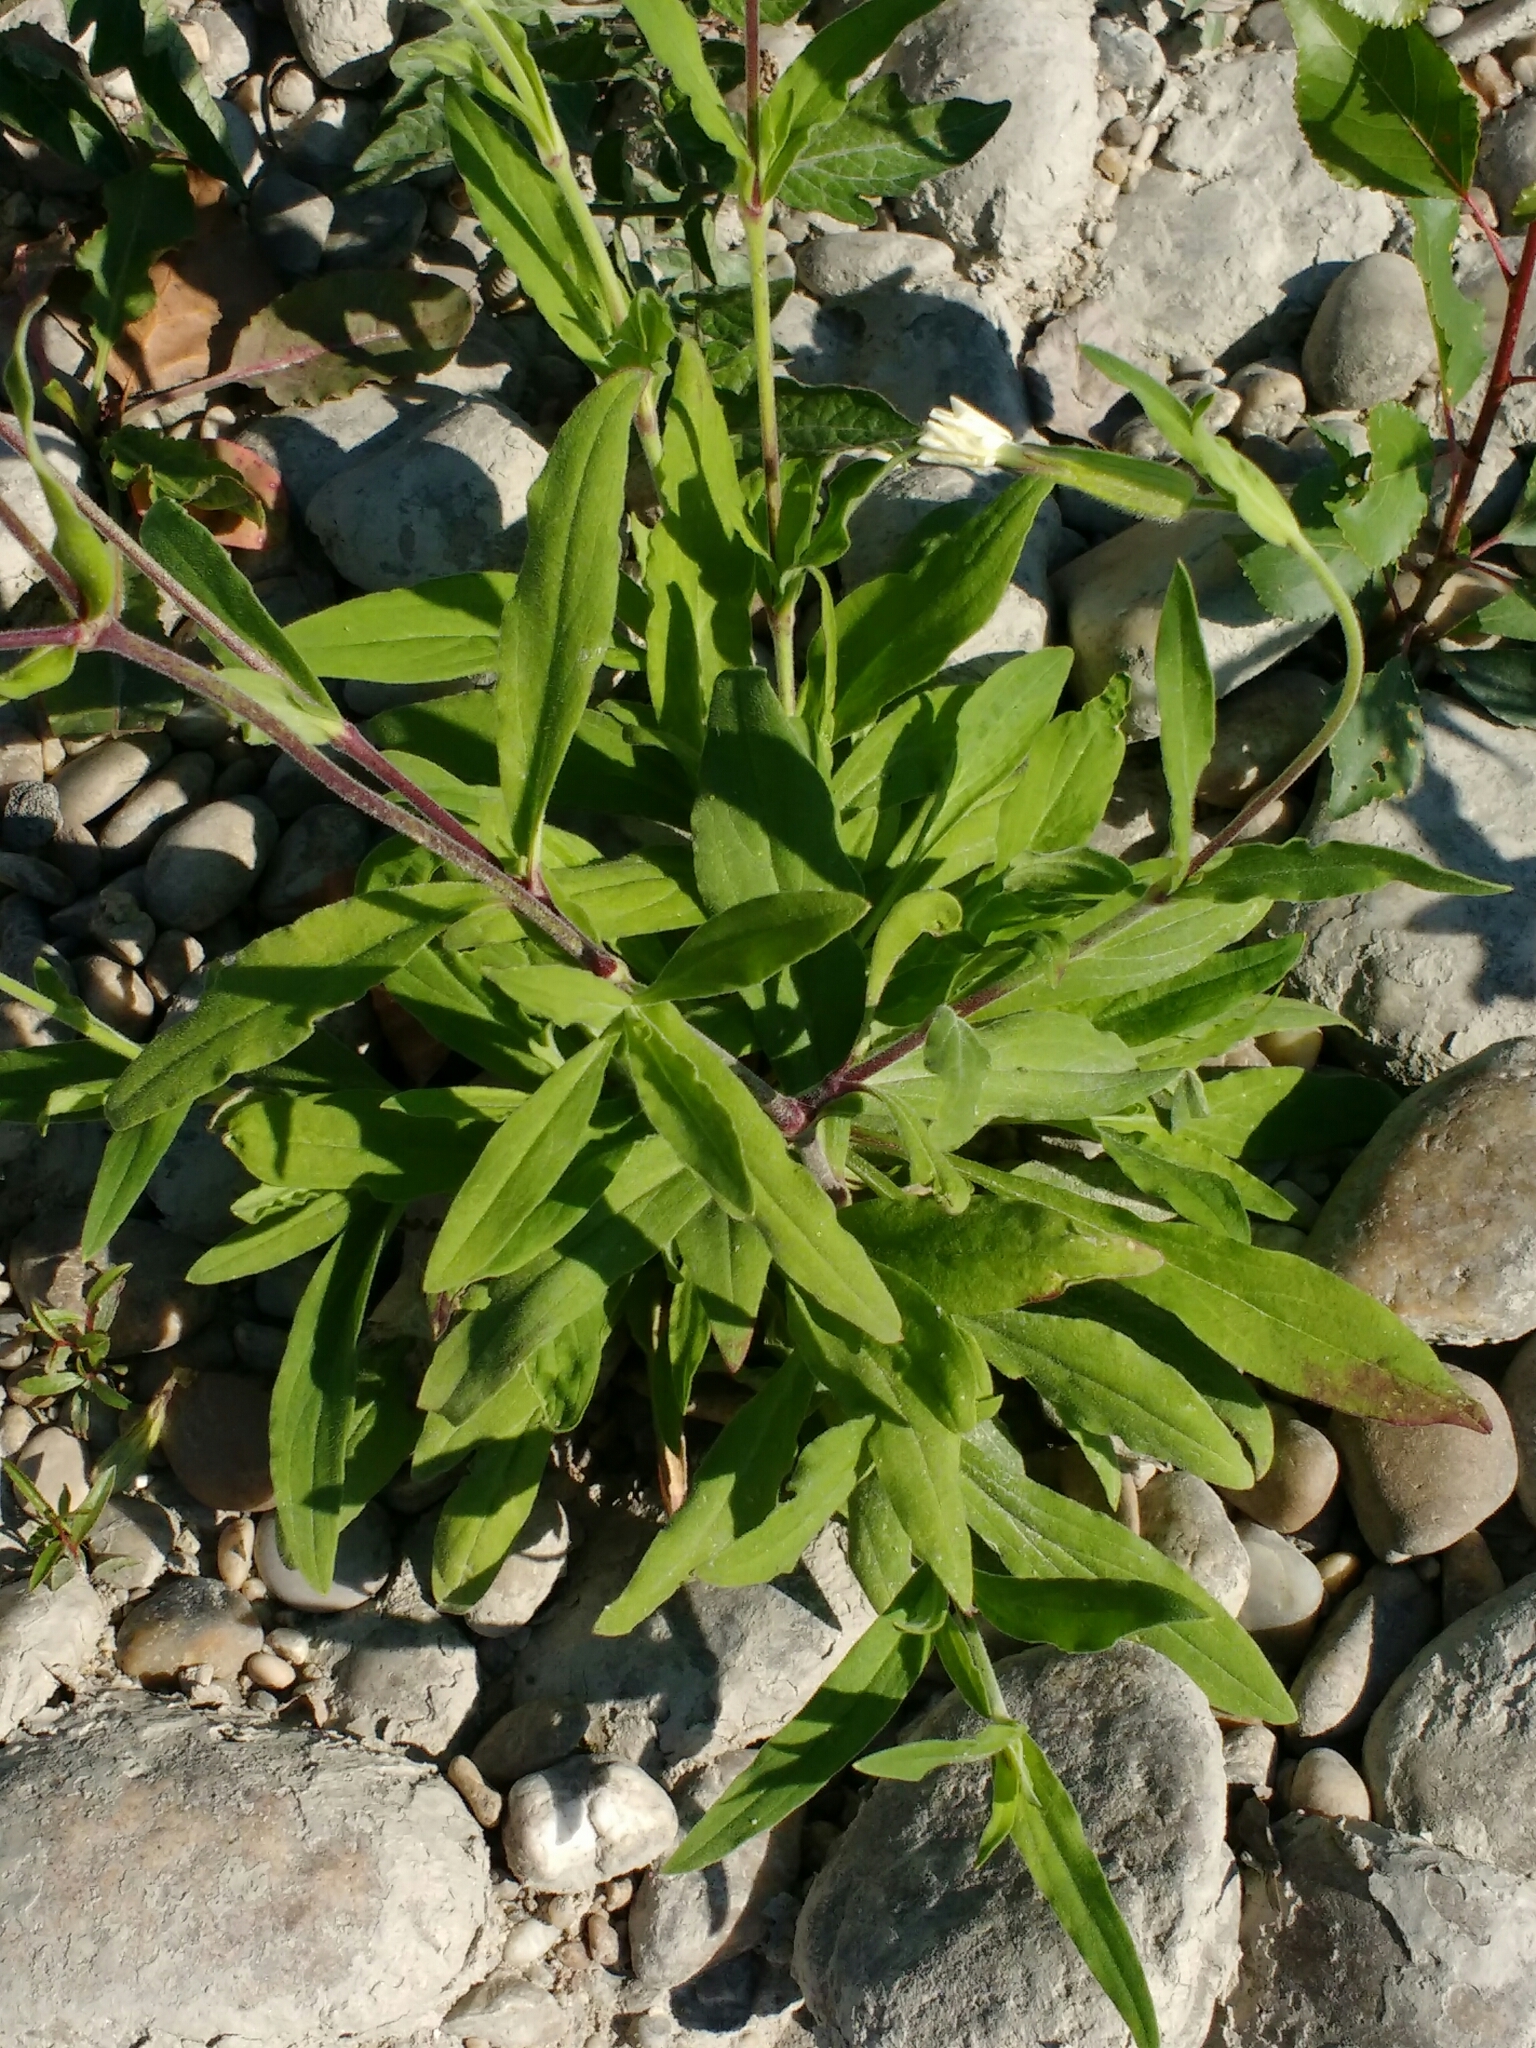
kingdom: Plantae
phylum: Tracheophyta
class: Magnoliopsida
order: Caryophyllales
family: Caryophyllaceae
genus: Silene
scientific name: Silene latifolia
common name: White campion
